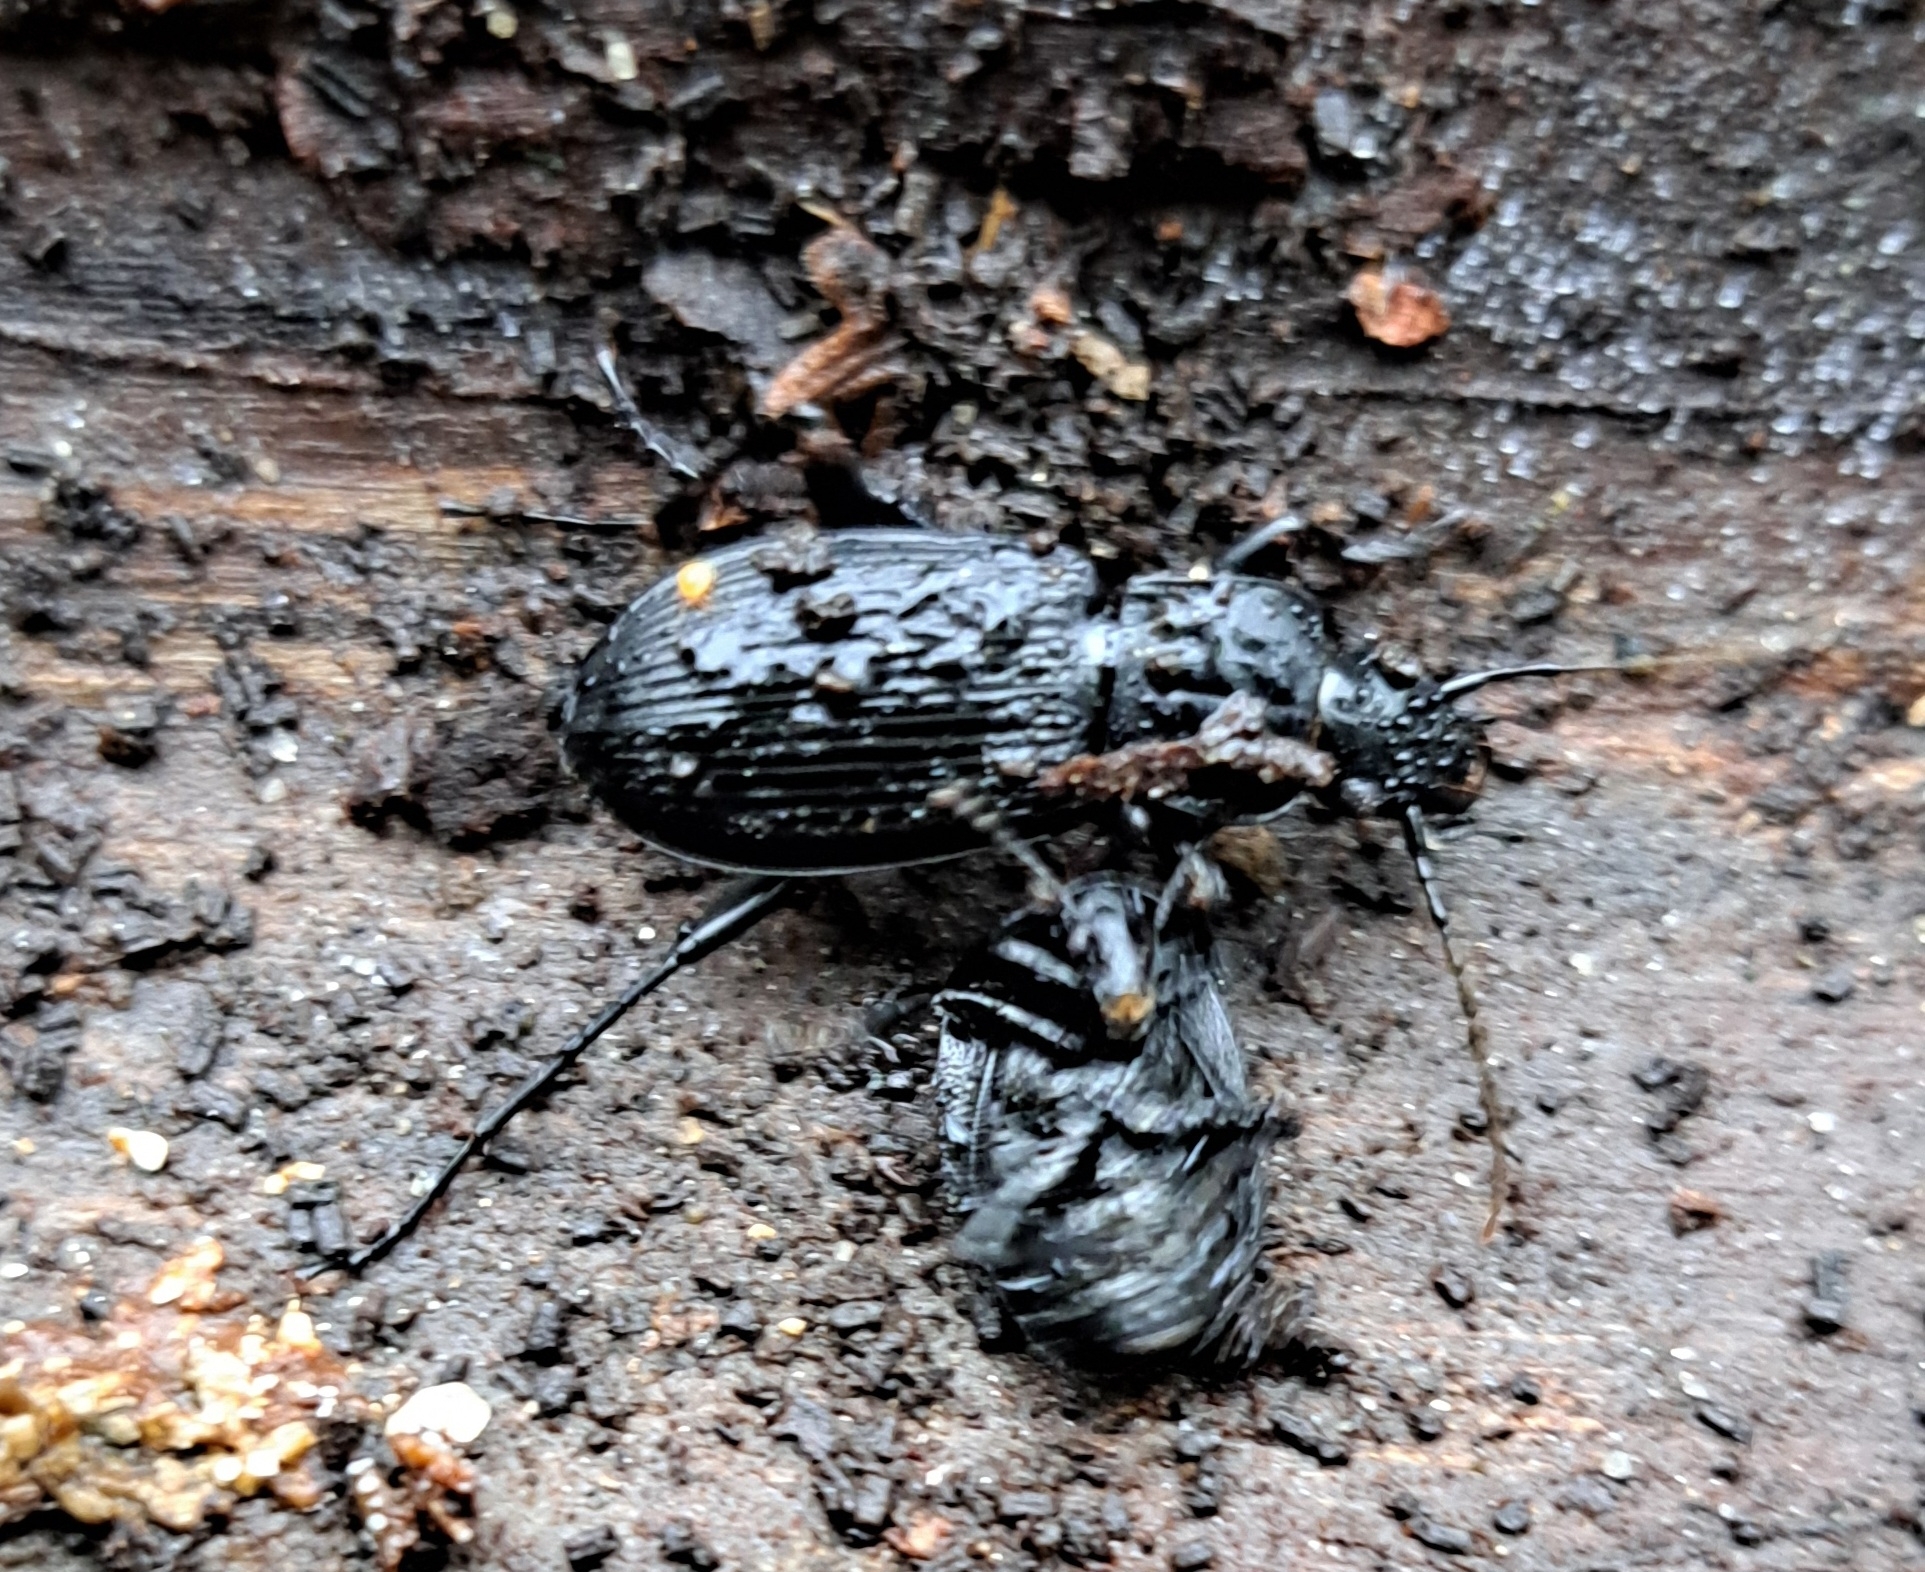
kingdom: Animalia
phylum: Arthropoda
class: Insecta
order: Coleoptera
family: Carabidae
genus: Pterostichus
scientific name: Pterostichus niger
